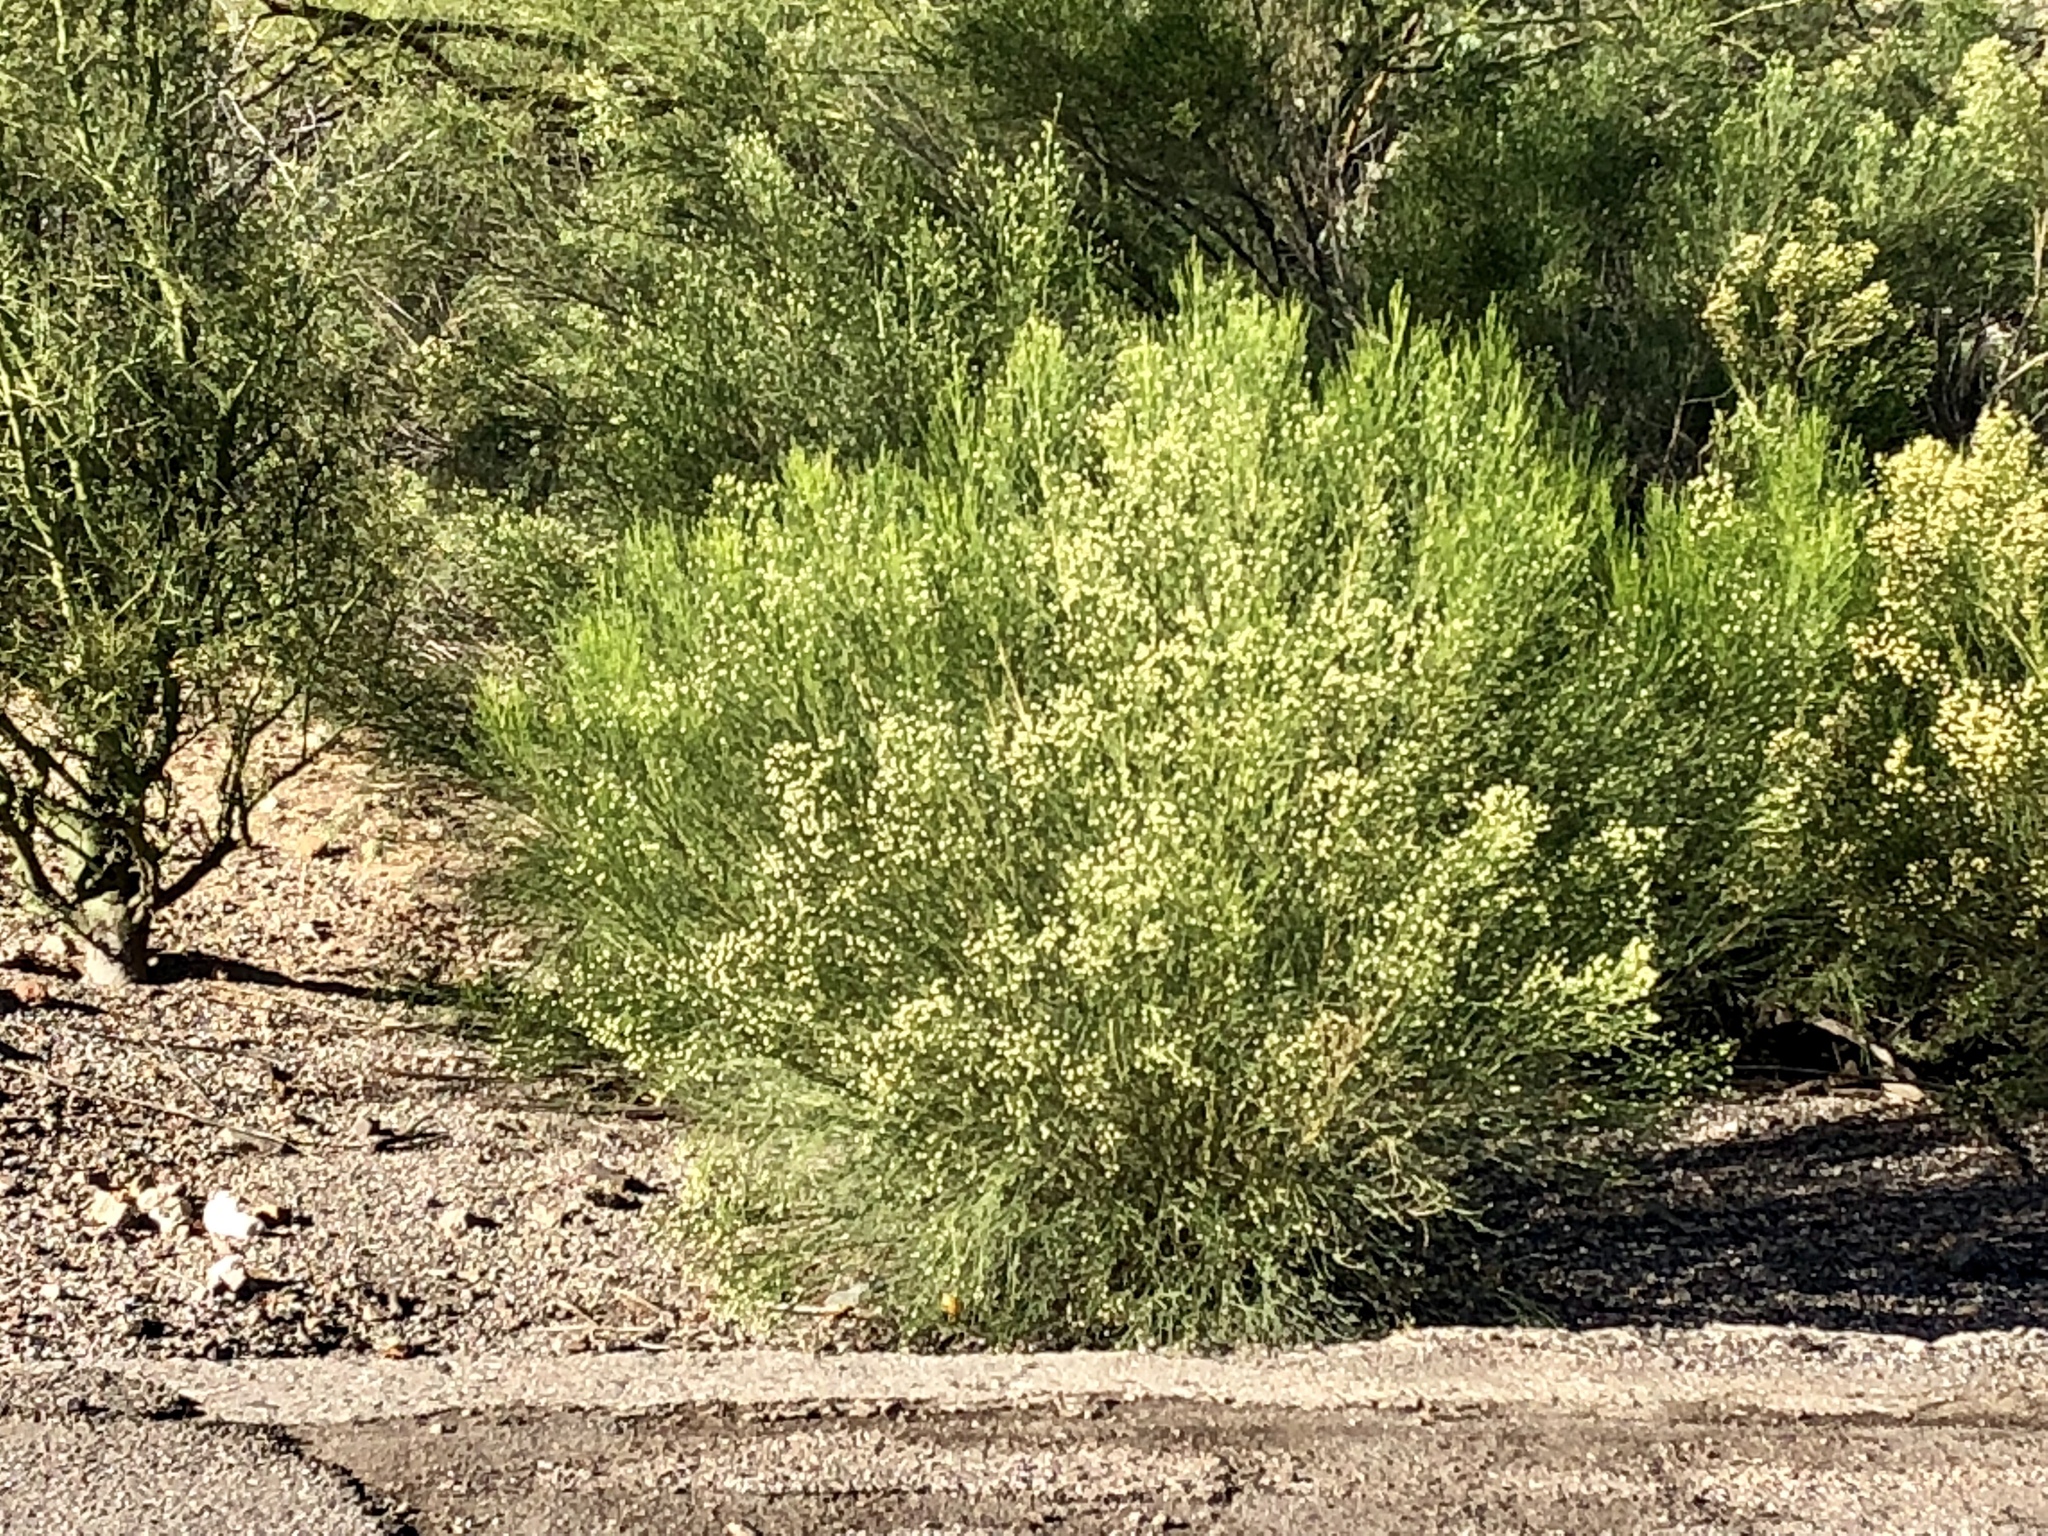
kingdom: Plantae
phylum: Tracheophyta
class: Magnoliopsida
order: Asterales
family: Asteraceae
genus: Baccharis
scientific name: Baccharis sarothroides
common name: Desert-broom
